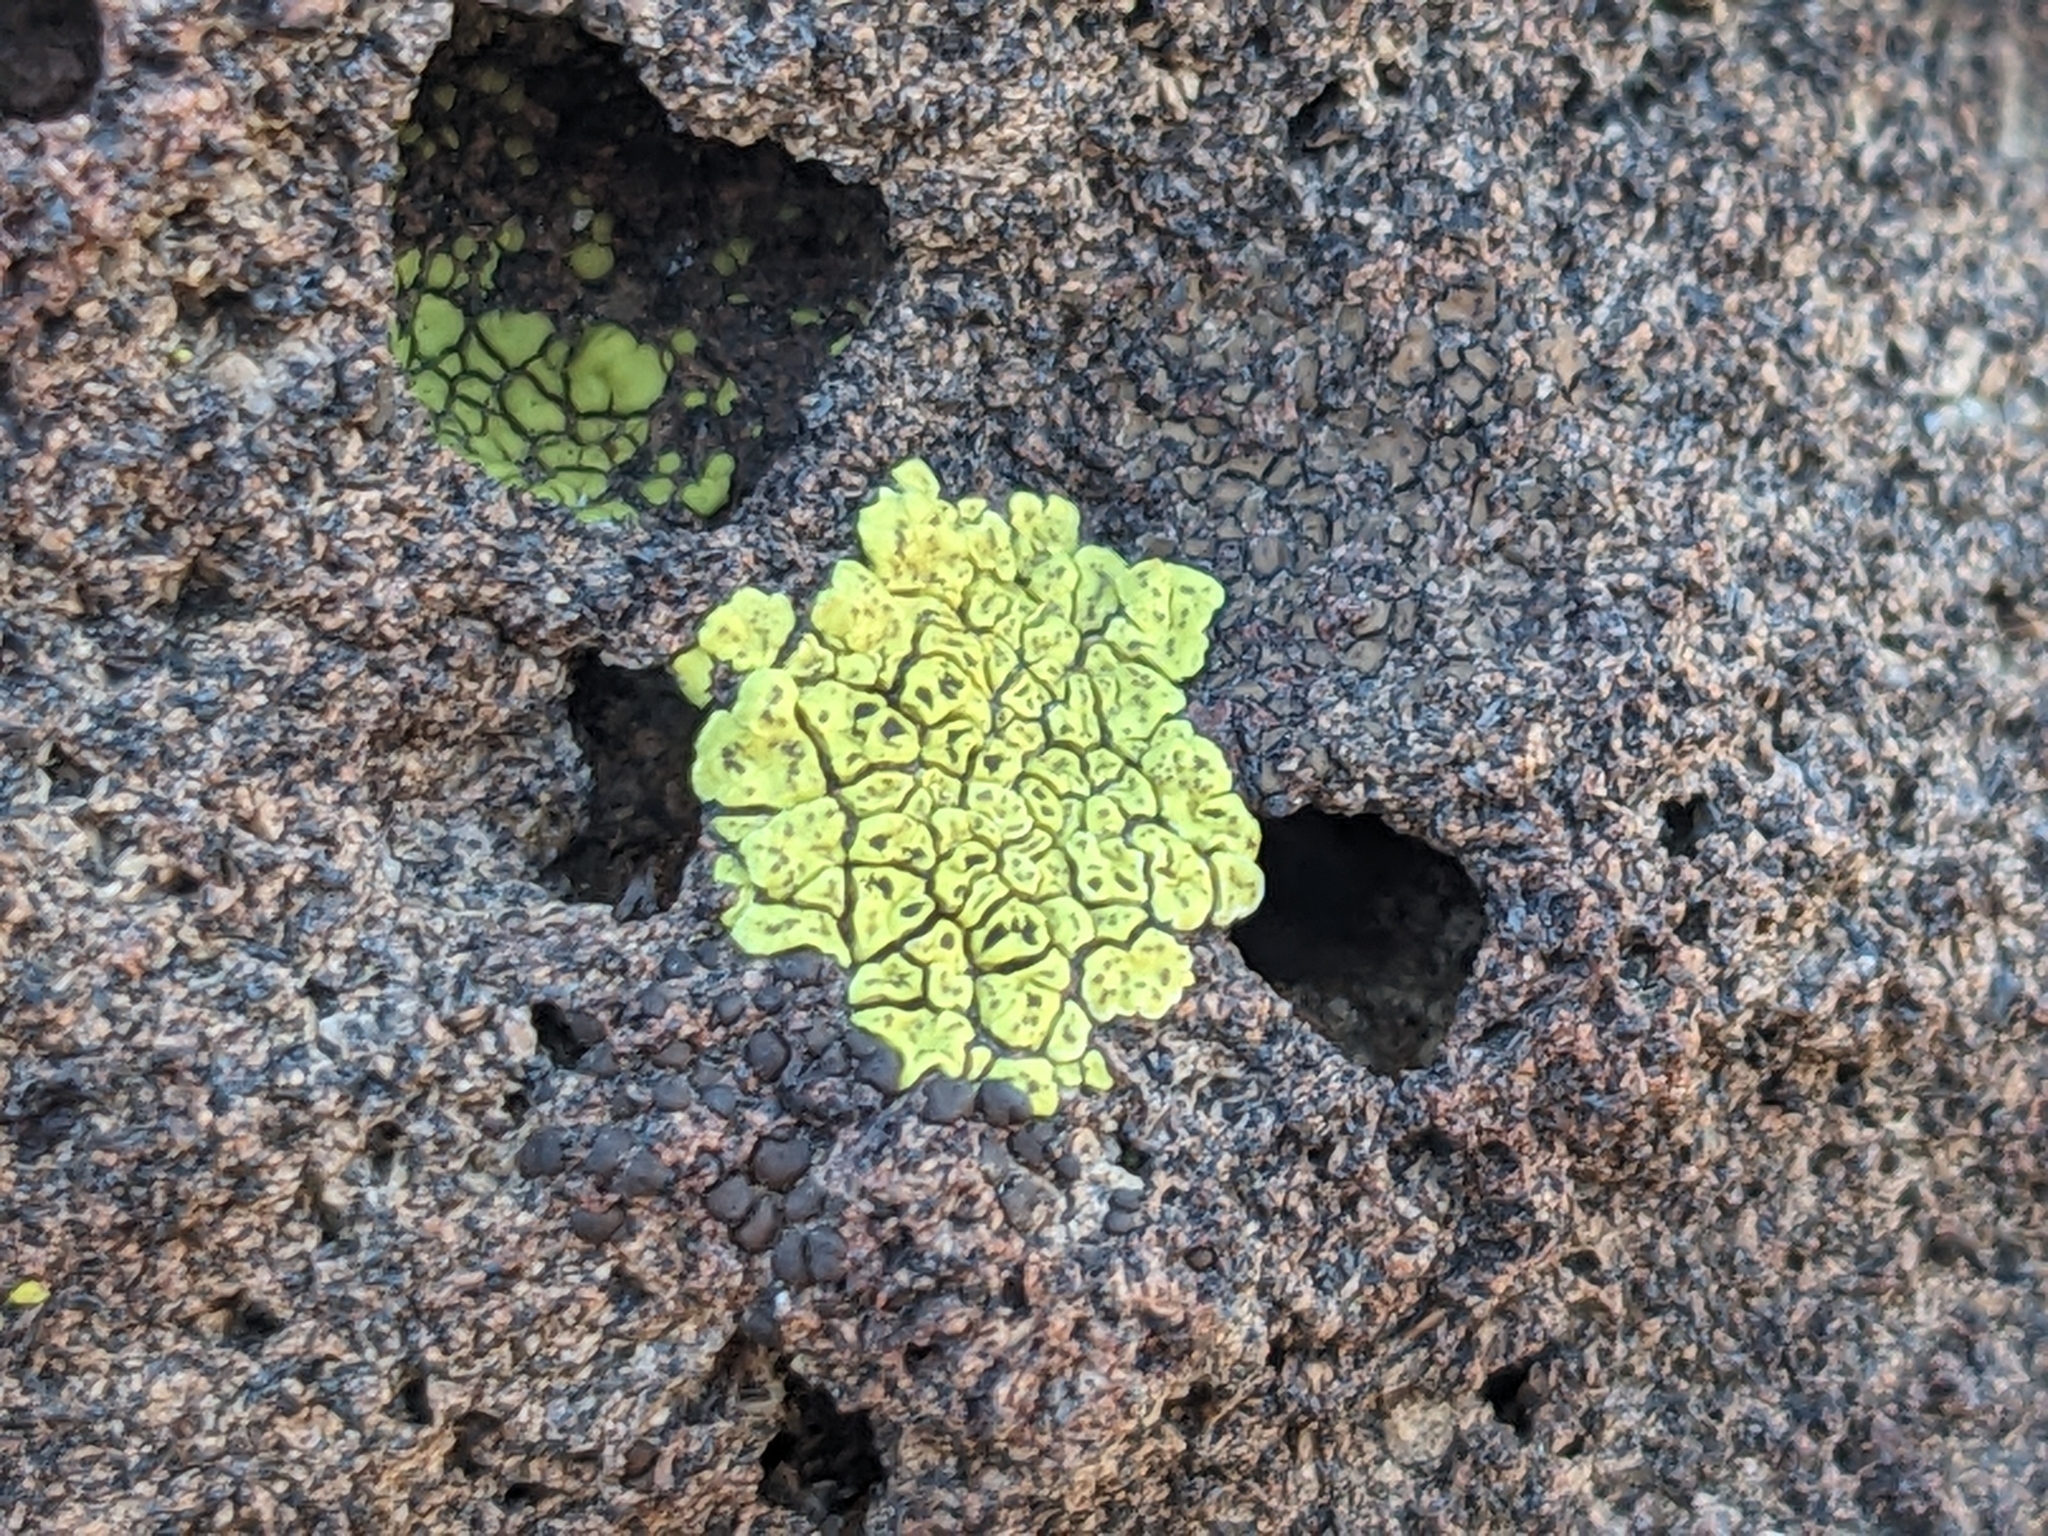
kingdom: Fungi
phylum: Ascomycota
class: Lecanoromycetes
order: Acarosporales
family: Acarosporaceae
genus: Acarospora
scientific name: Acarospora socialis
